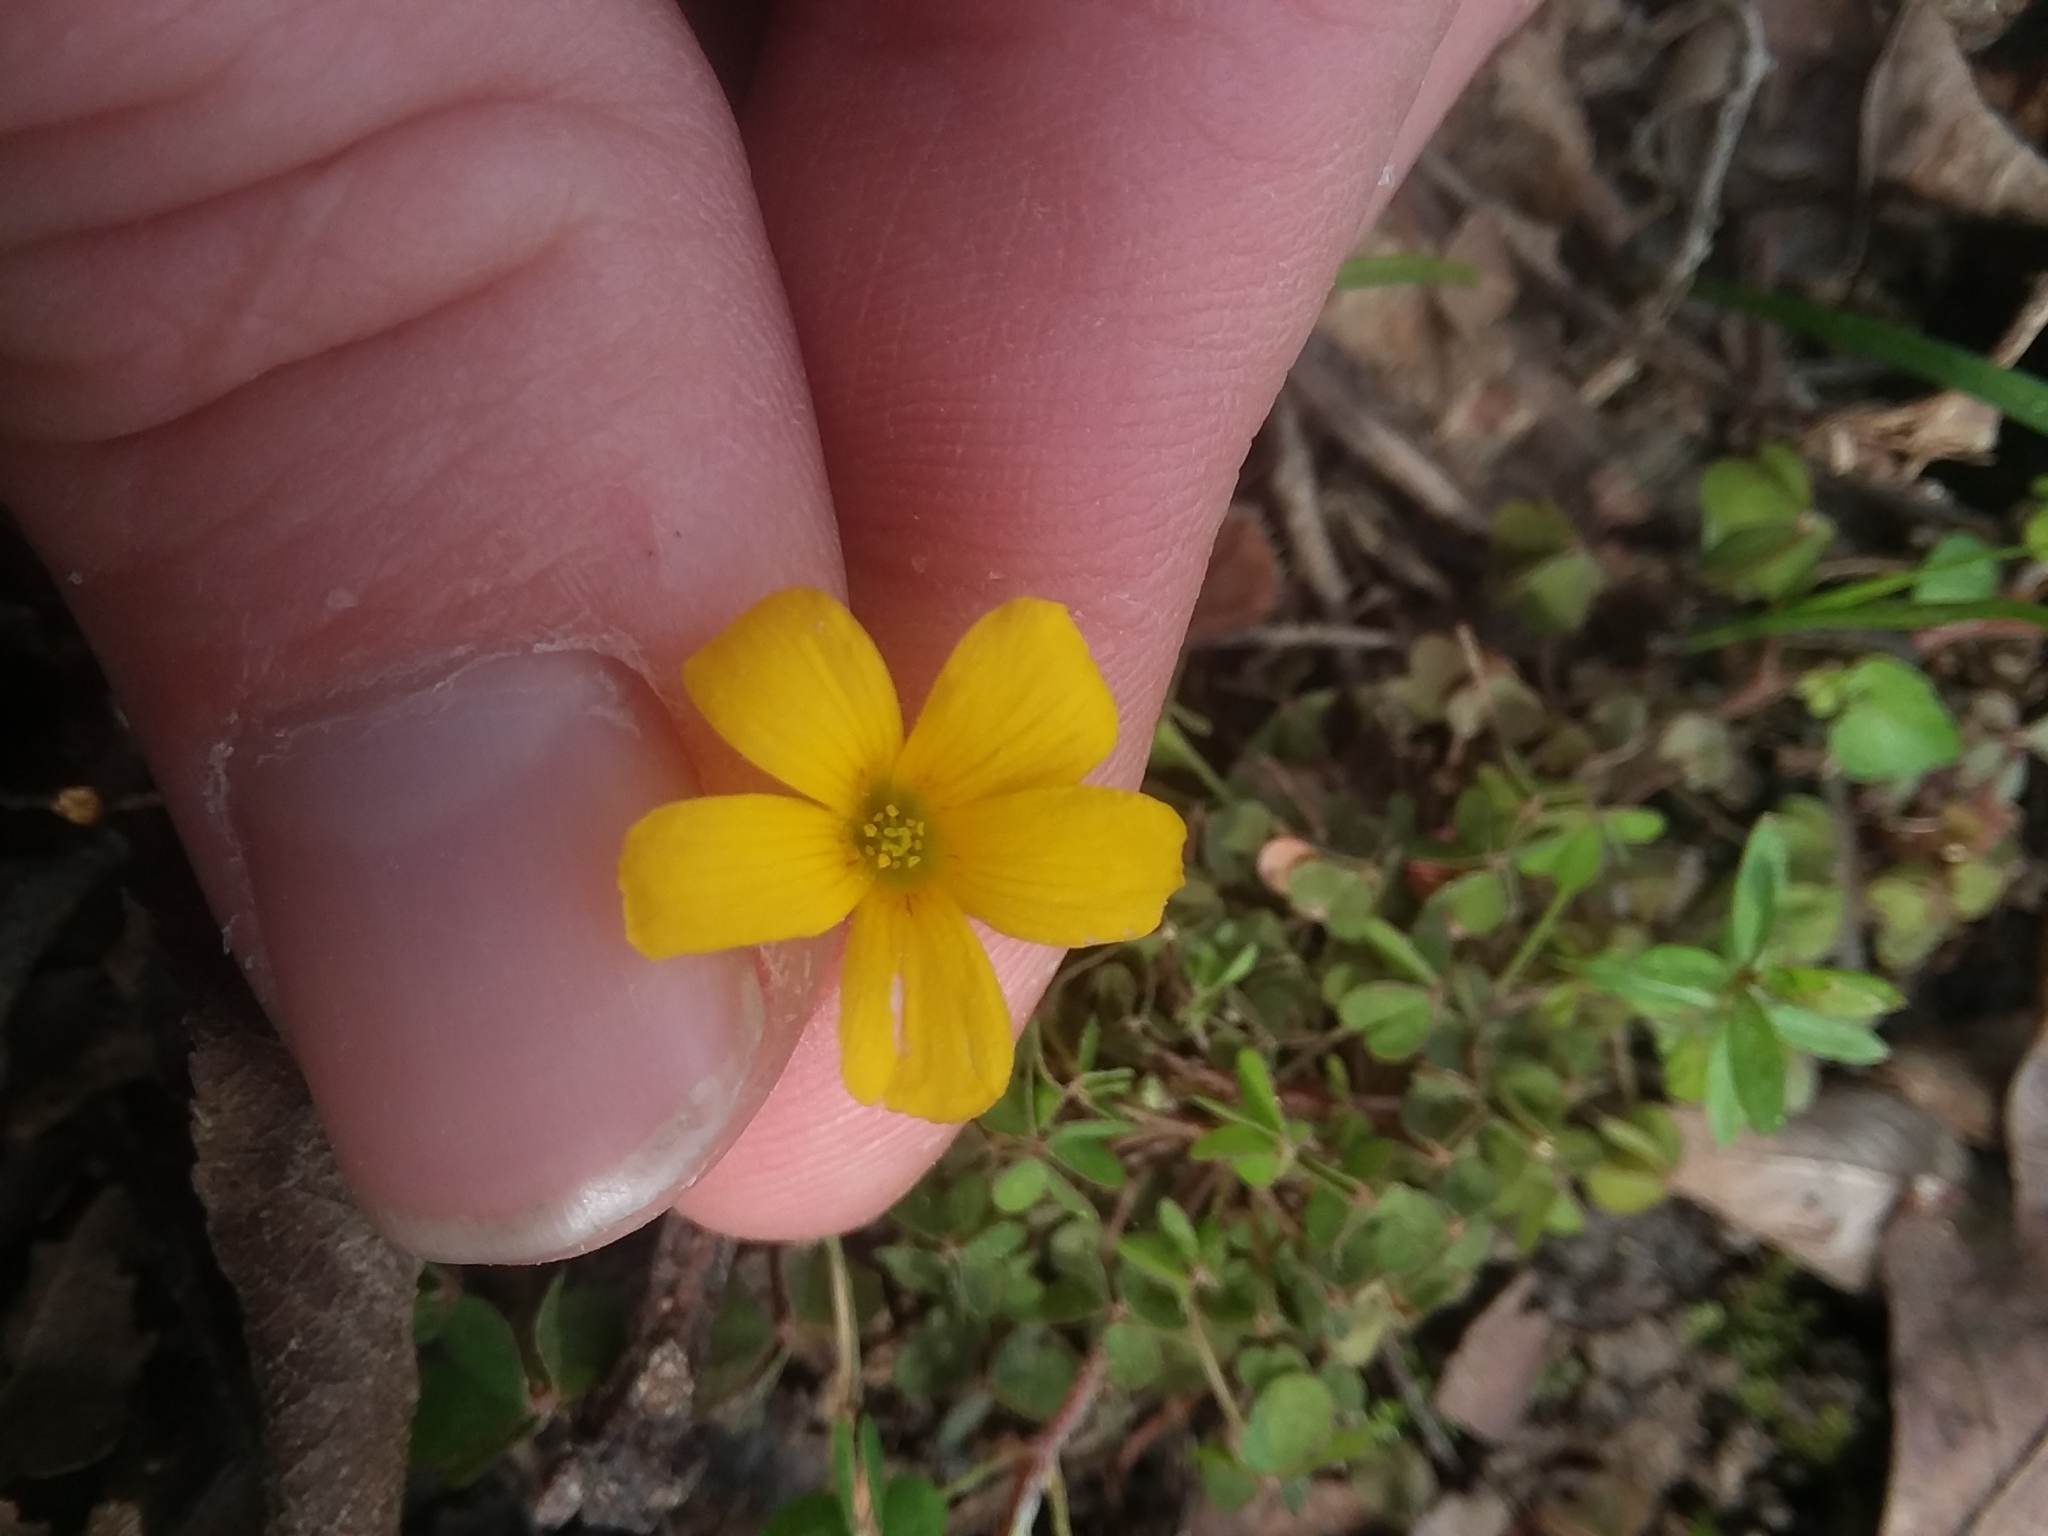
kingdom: Plantae
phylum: Tracheophyta
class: Magnoliopsida
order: Oxalidales
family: Oxalidaceae
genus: Oxalis
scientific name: Oxalis corniculata
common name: Procumbent yellow-sorrel
